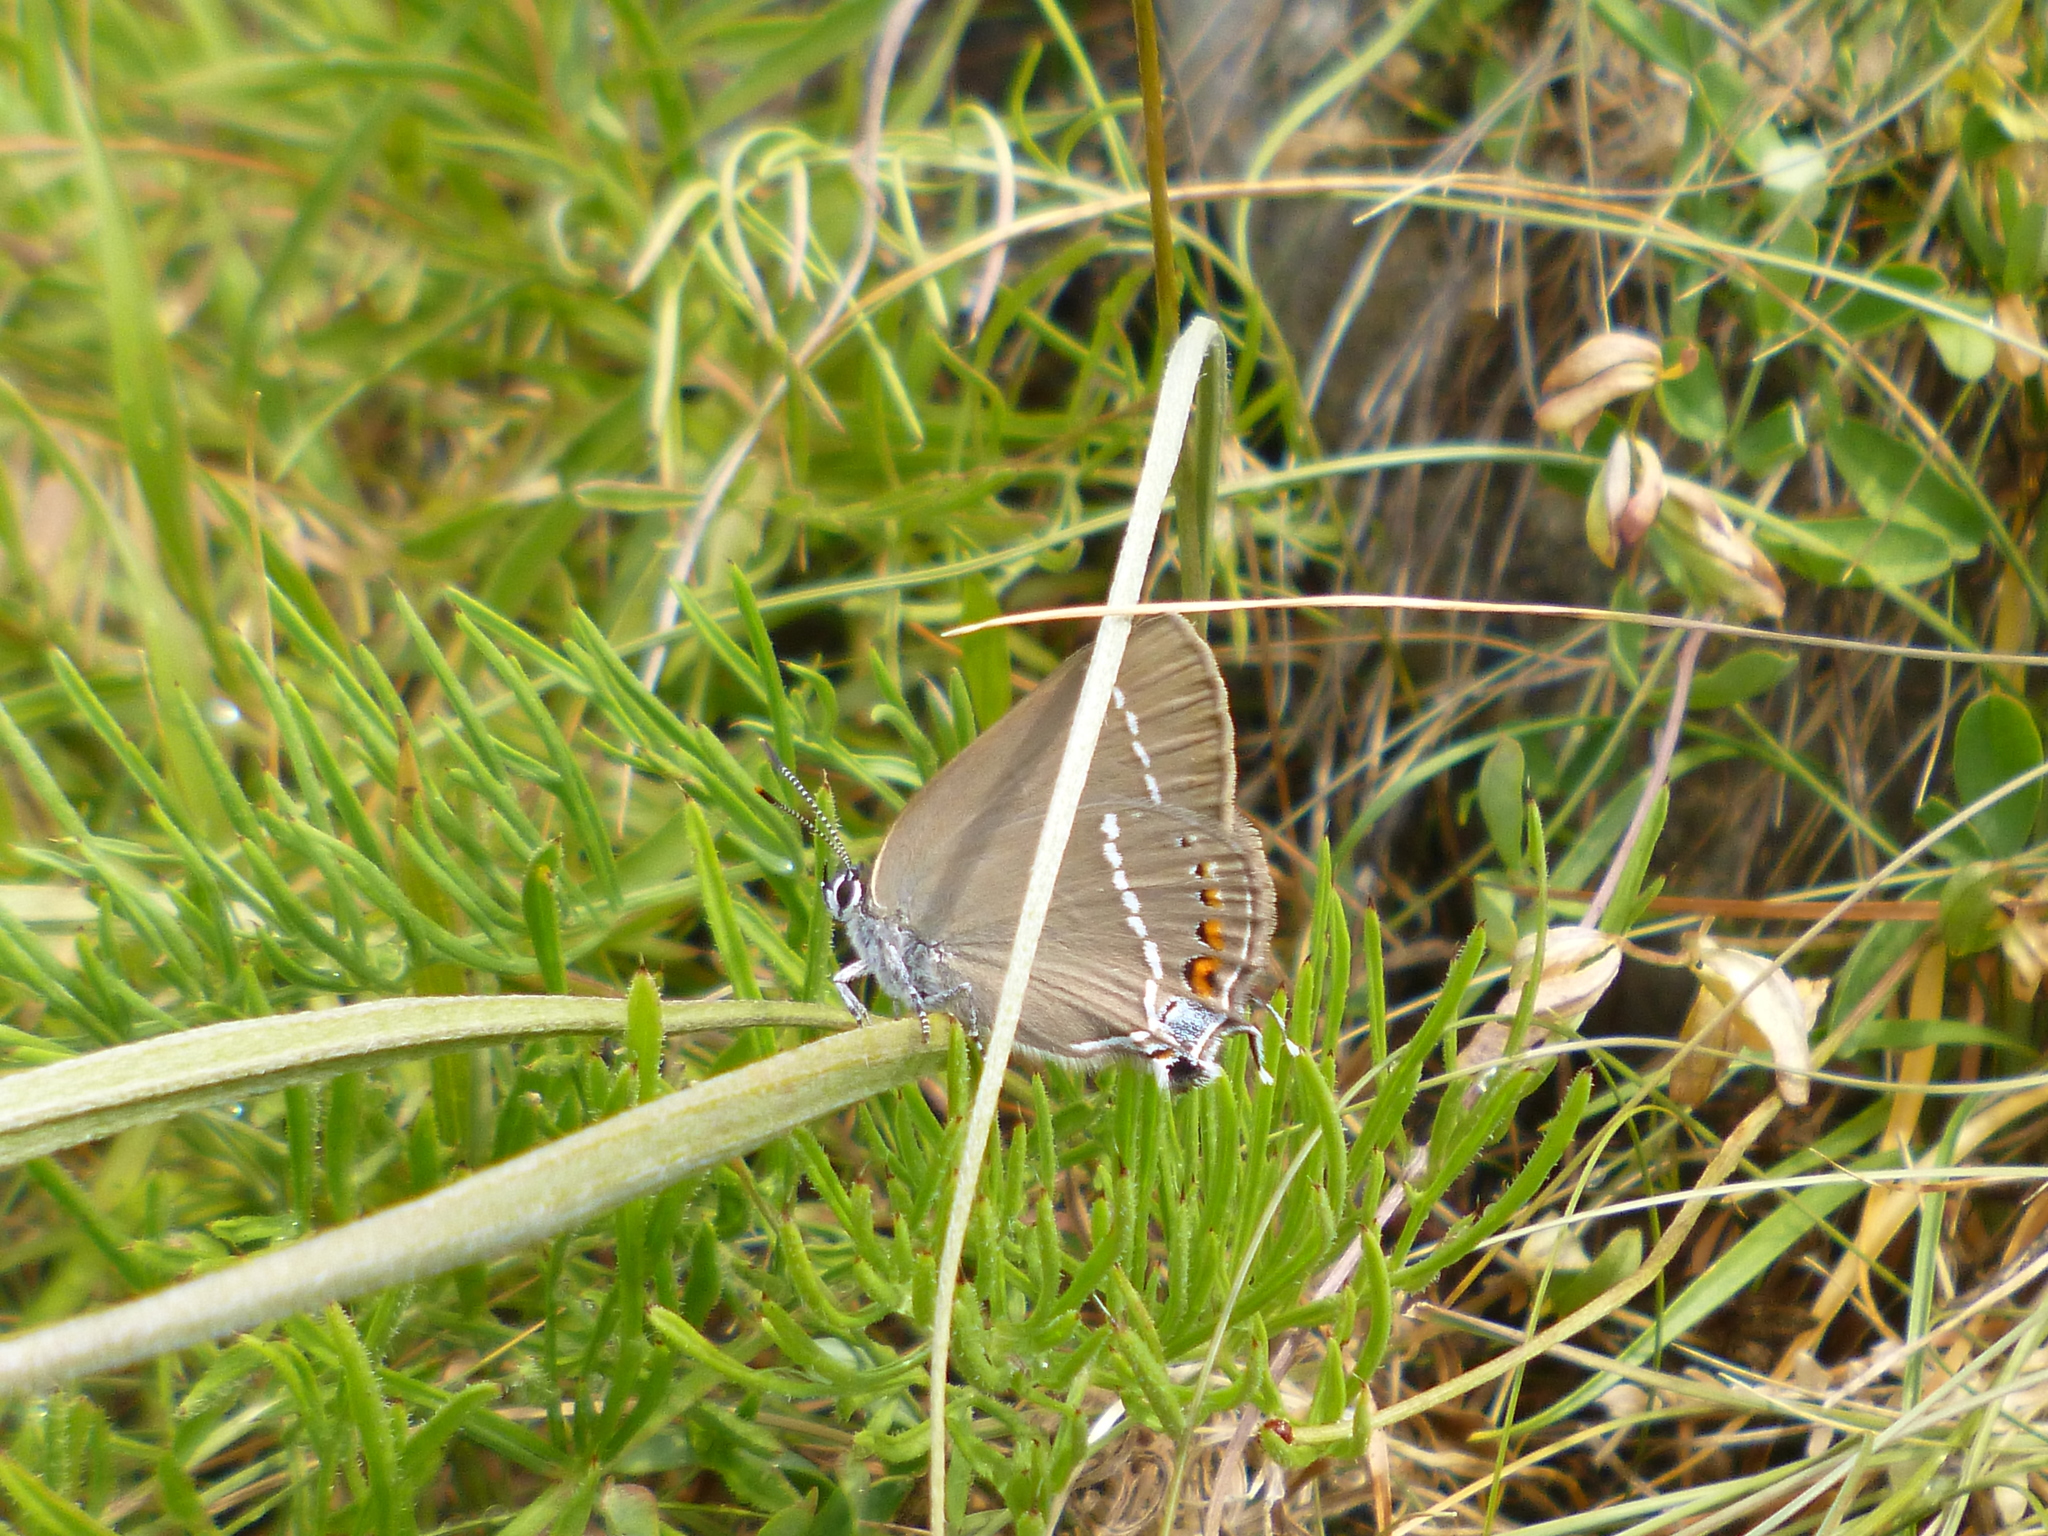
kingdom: Animalia
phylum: Arthropoda
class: Insecta
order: Lepidoptera
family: Lycaenidae
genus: Tuttiola
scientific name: Tuttiola spini
